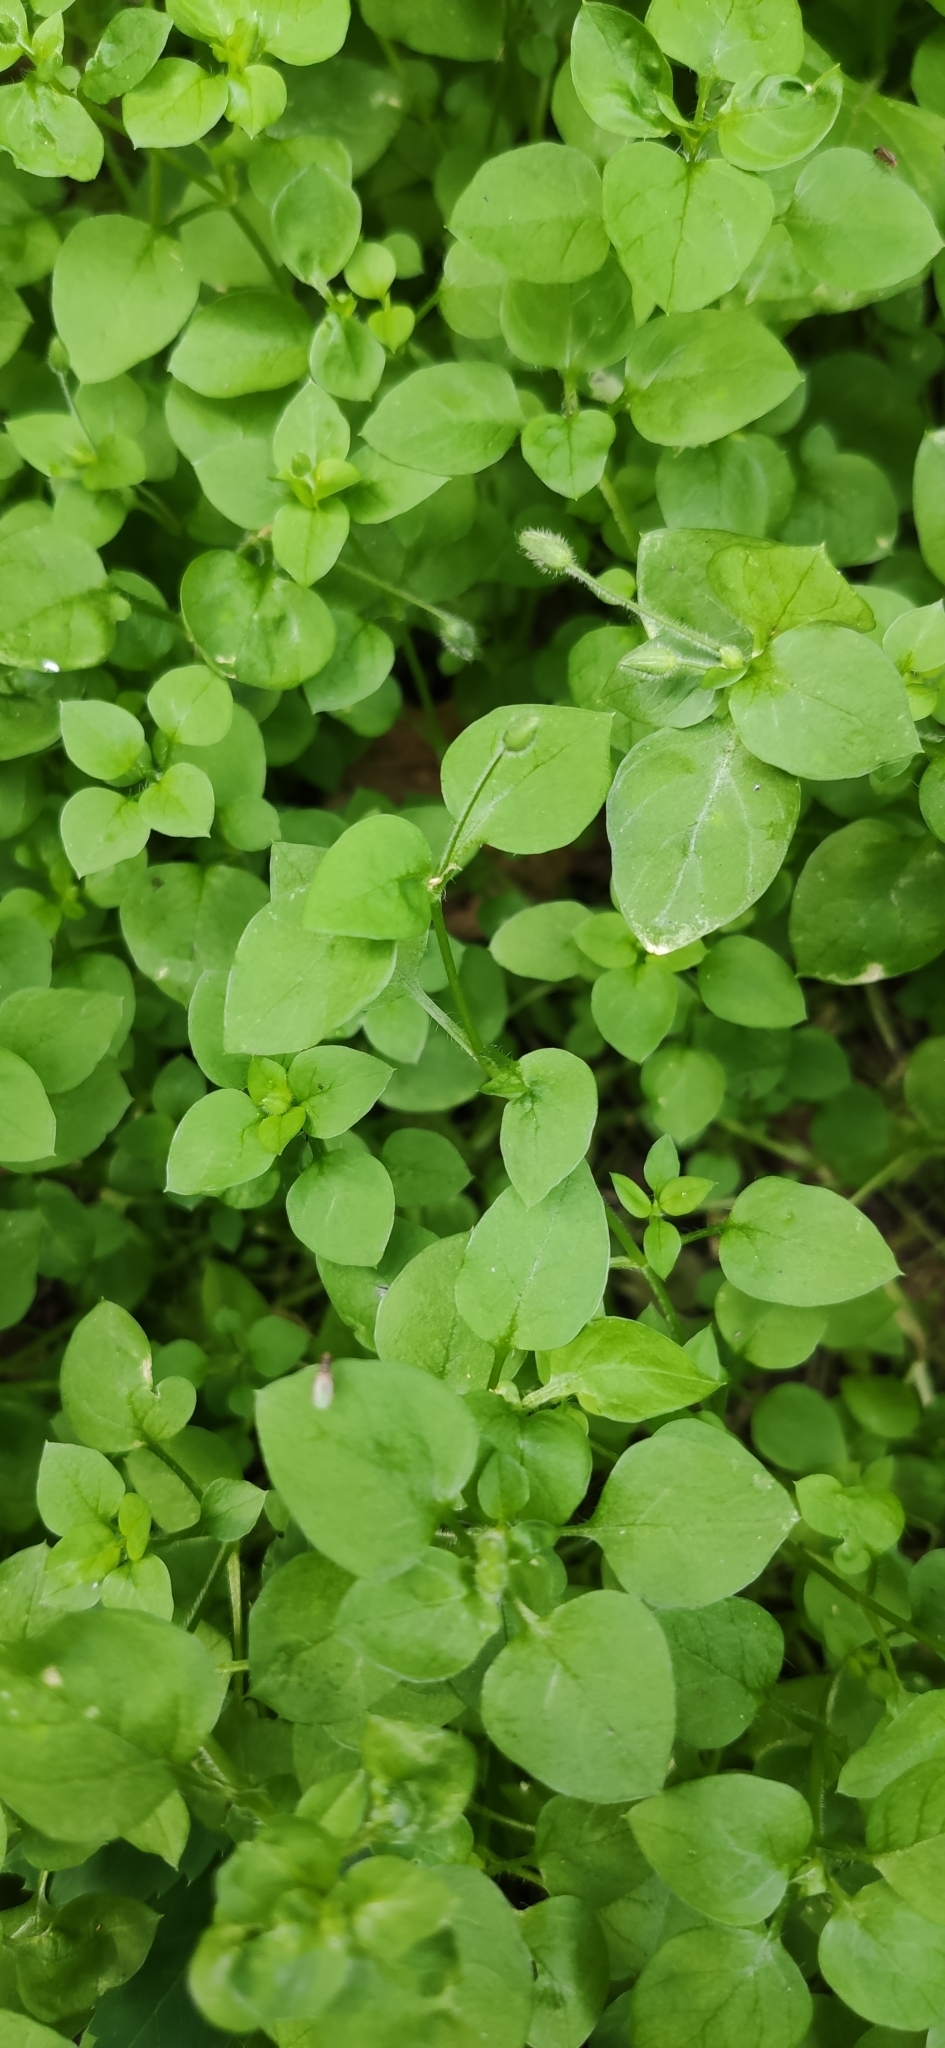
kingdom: Plantae
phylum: Tracheophyta
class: Magnoliopsida
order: Caryophyllales
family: Caryophyllaceae
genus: Stellaria
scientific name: Stellaria media
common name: Common chickweed
